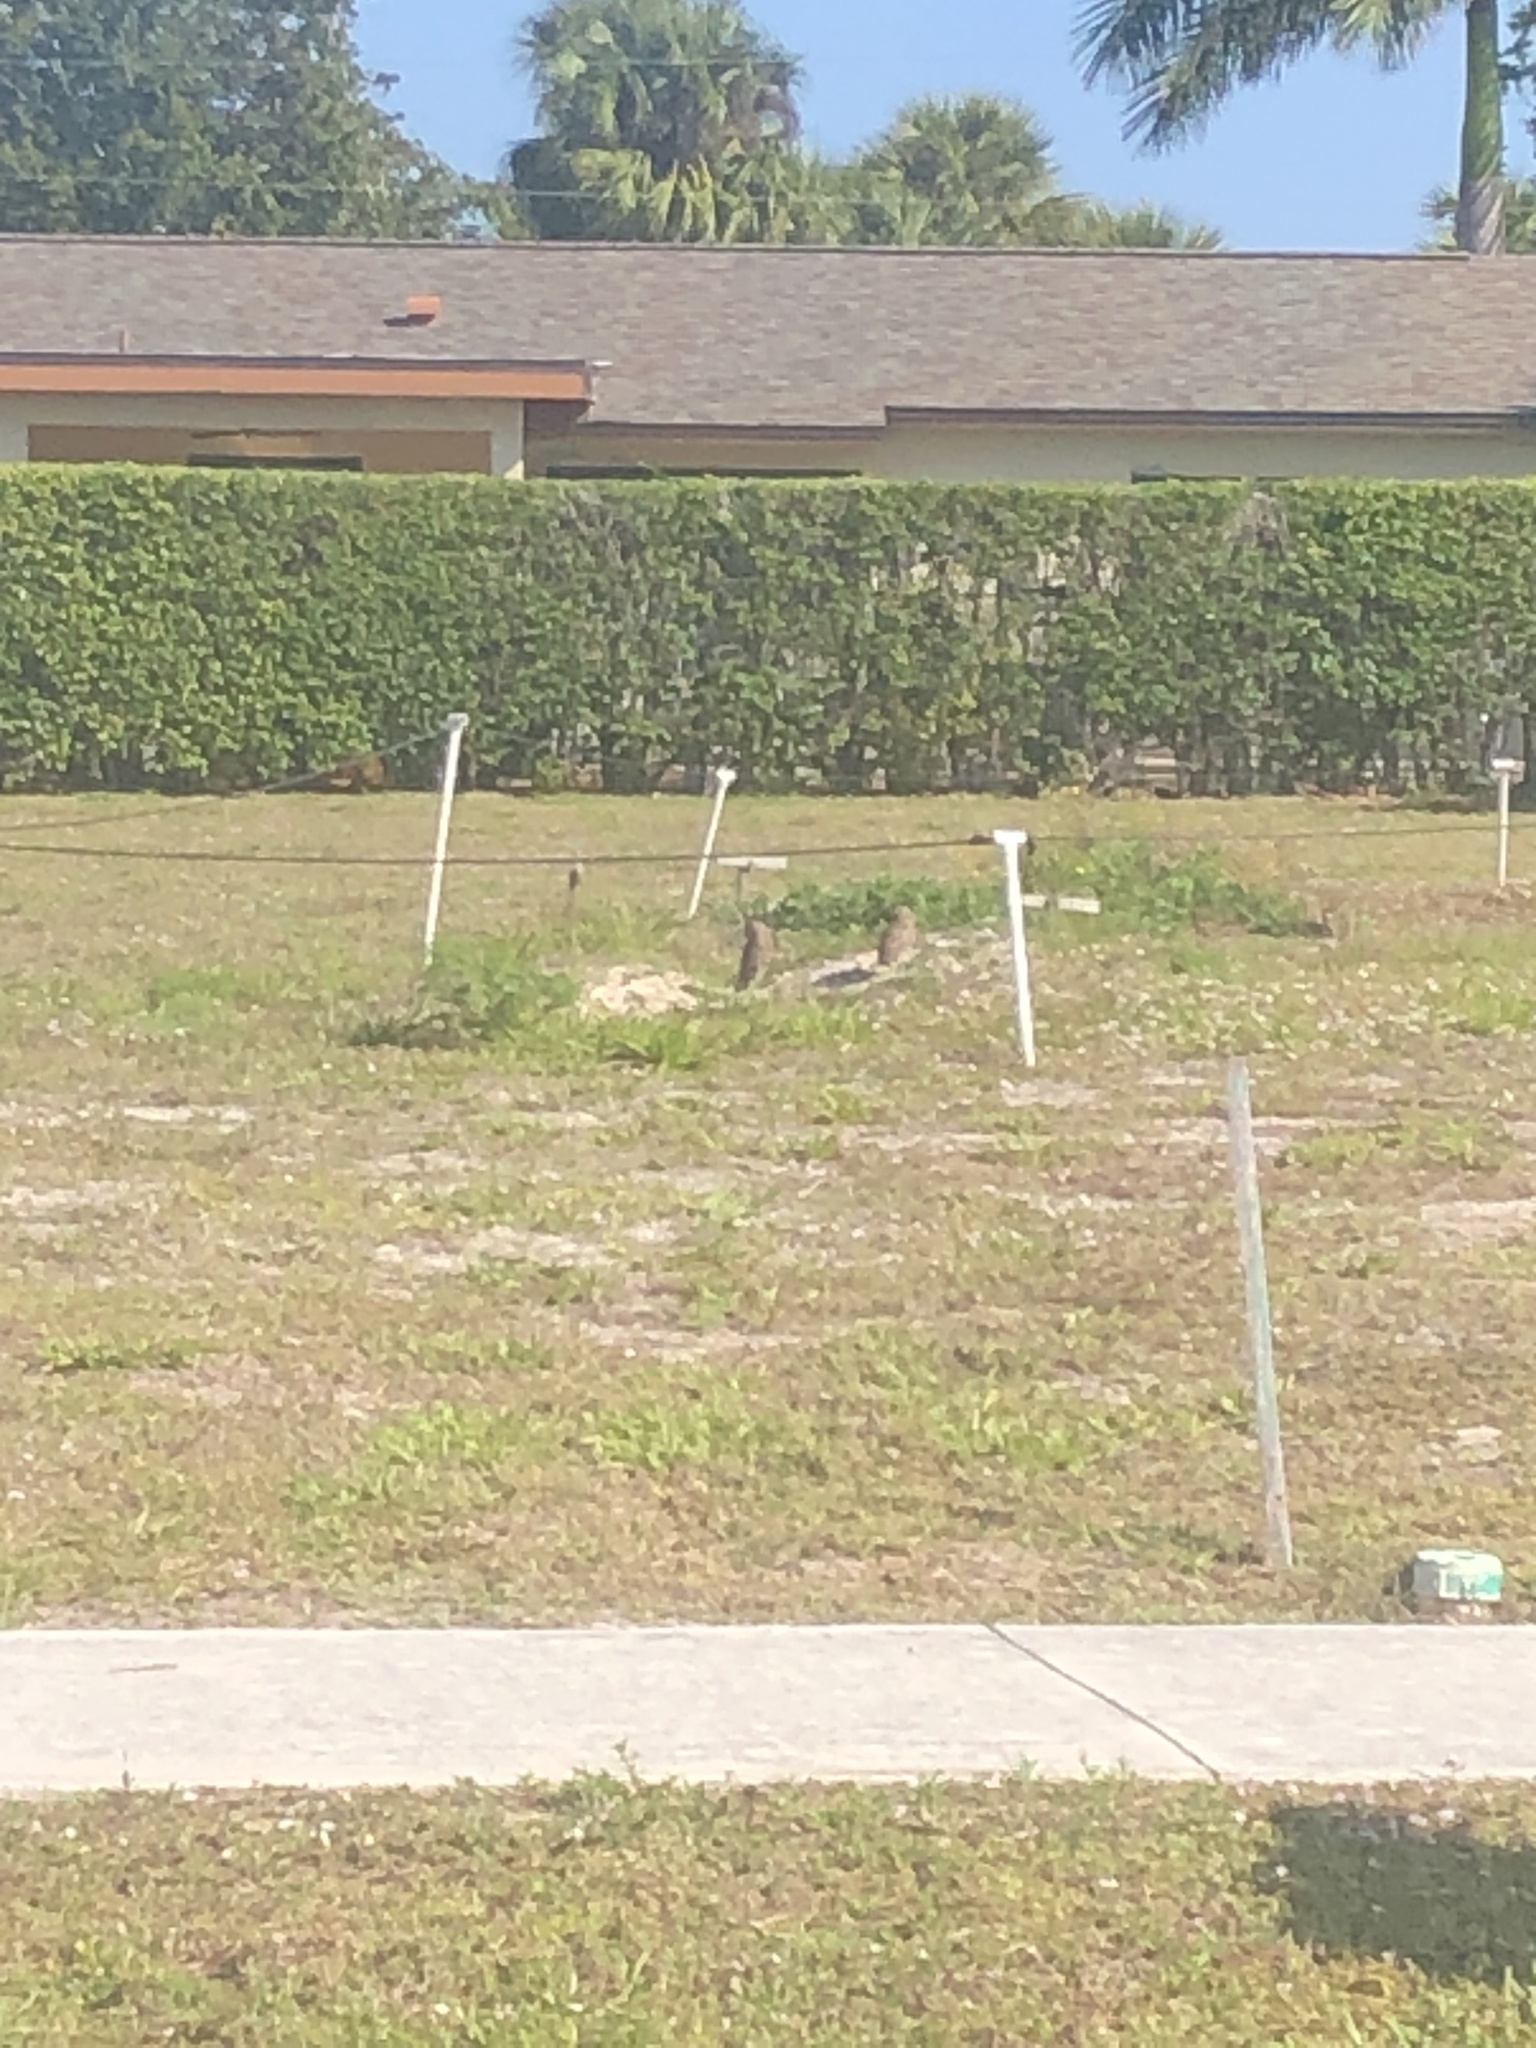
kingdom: Animalia
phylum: Chordata
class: Aves
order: Strigiformes
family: Strigidae
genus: Athene
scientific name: Athene cunicularia
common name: Burrowing owl
